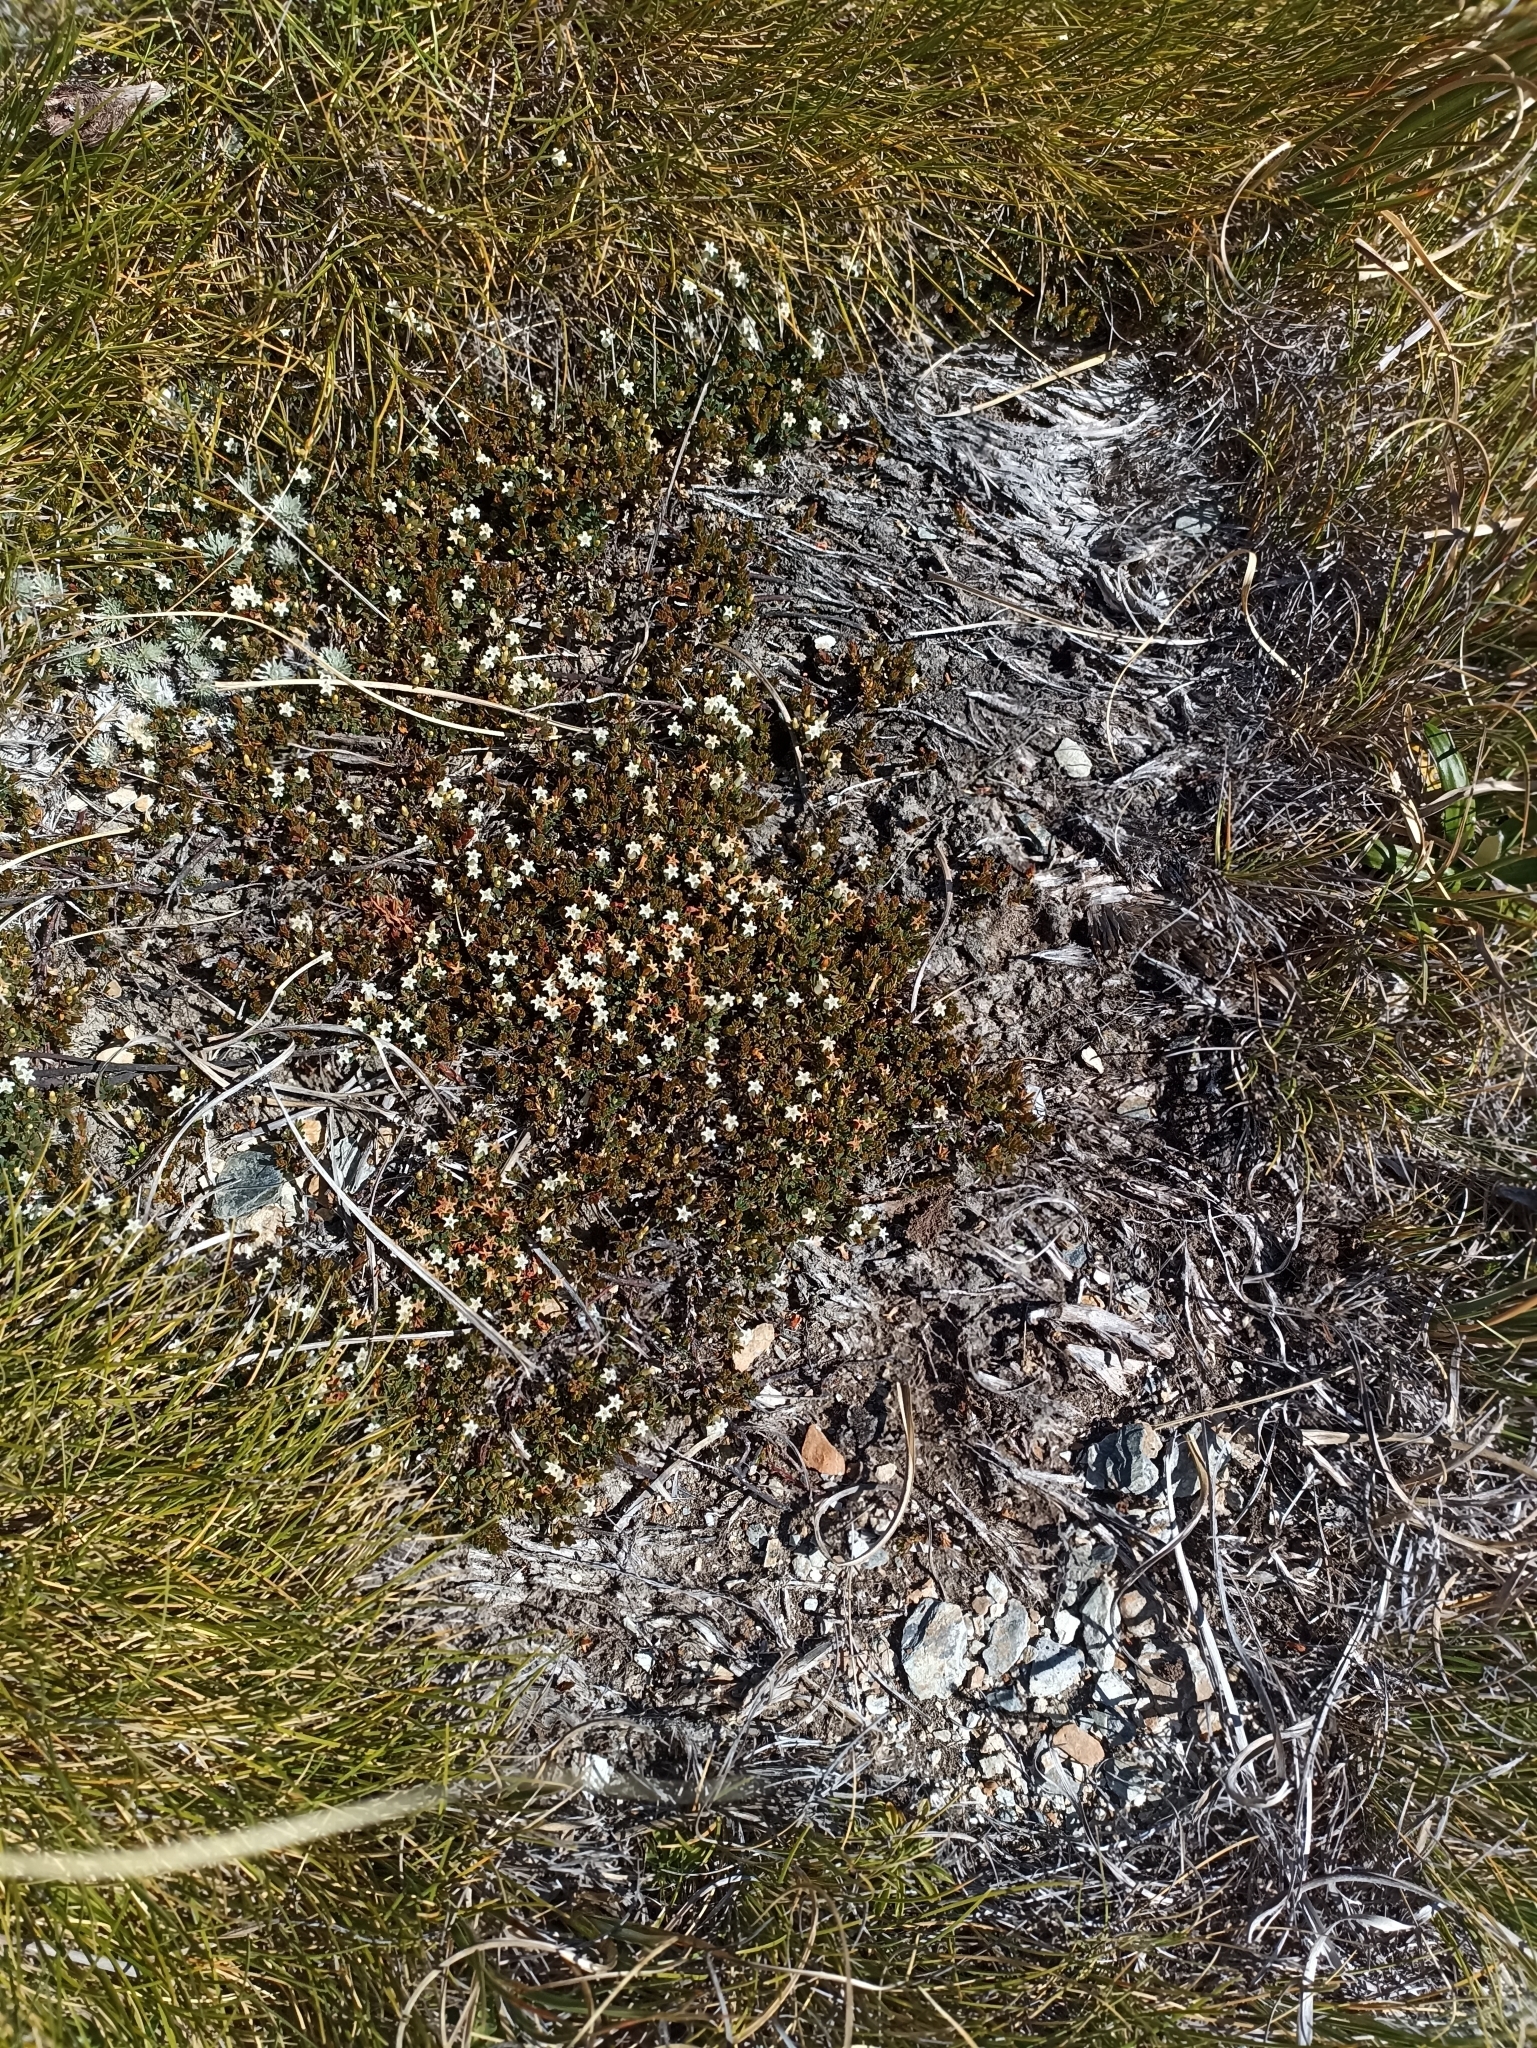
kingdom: Plantae
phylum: Tracheophyta
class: Magnoliopsida
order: Ericales
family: Ericaceae
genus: Pentachondra
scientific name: Pentachondra pumila
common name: Carpet-heath
